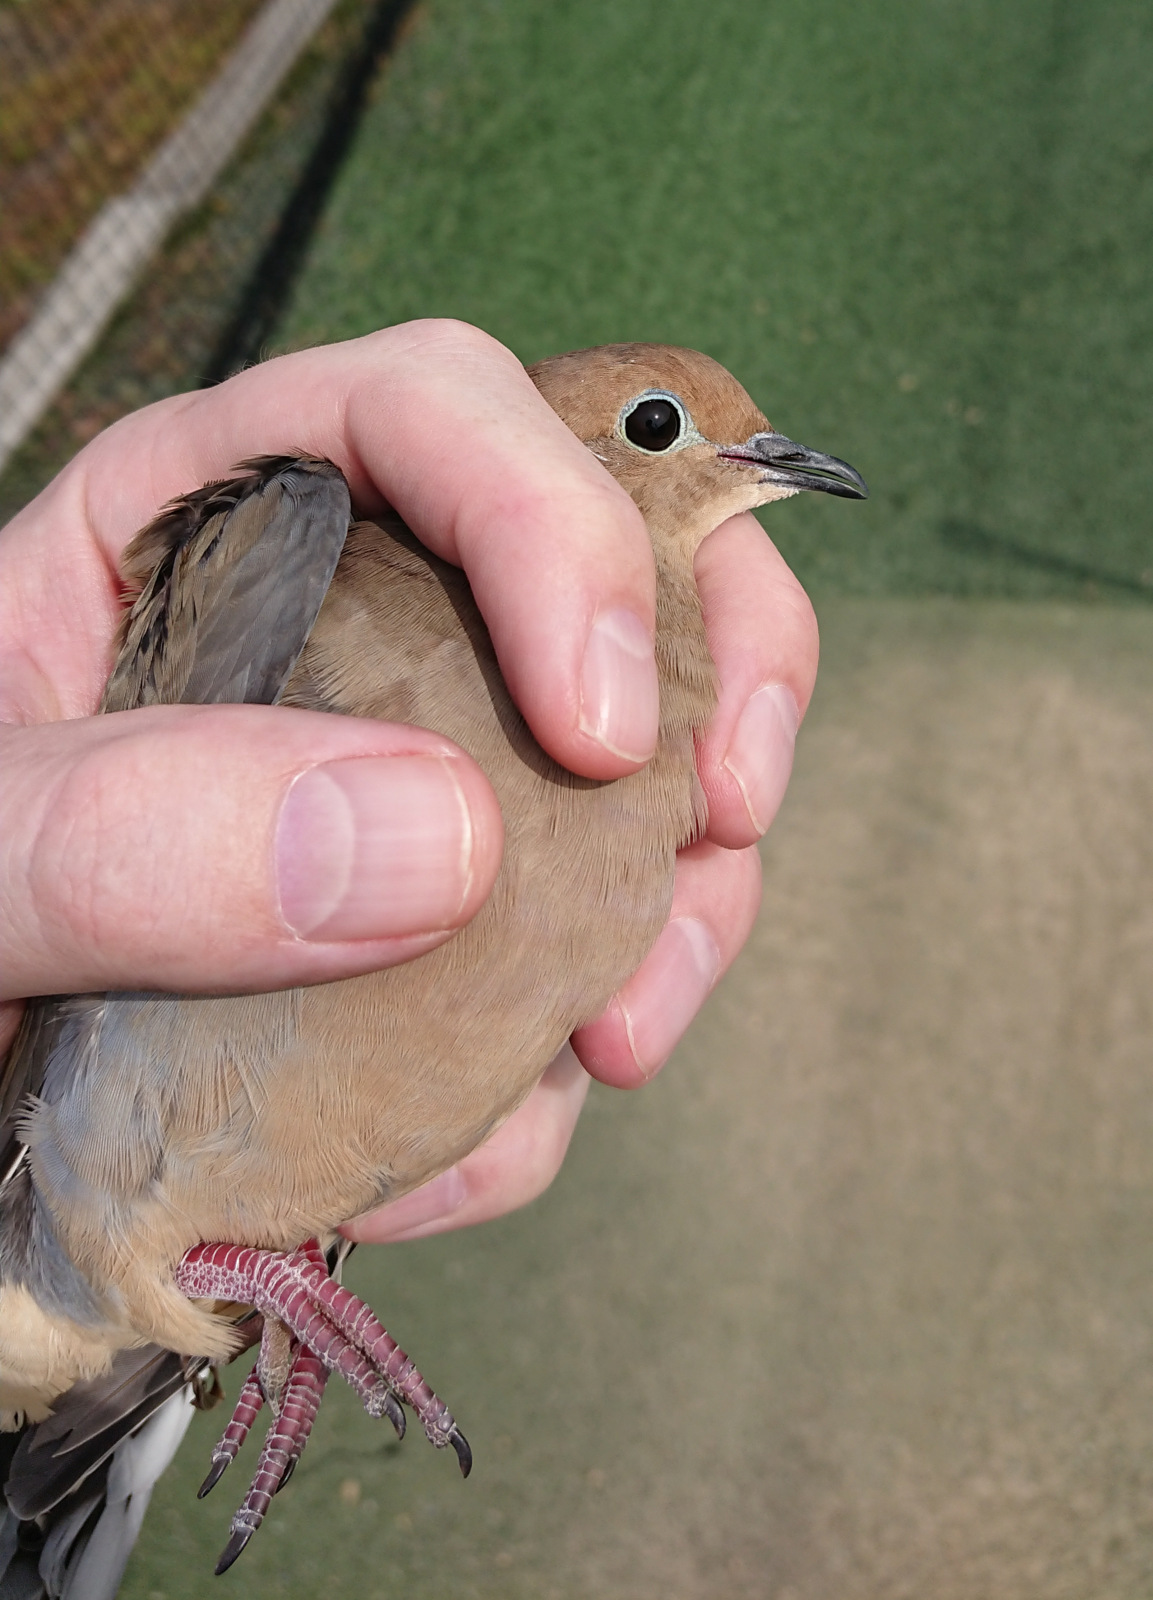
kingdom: Animalia
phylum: Chordata
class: Aves
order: Columbiformes
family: Columbidae
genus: Zenaida
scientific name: Zenaida macroura
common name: Mourning dove
